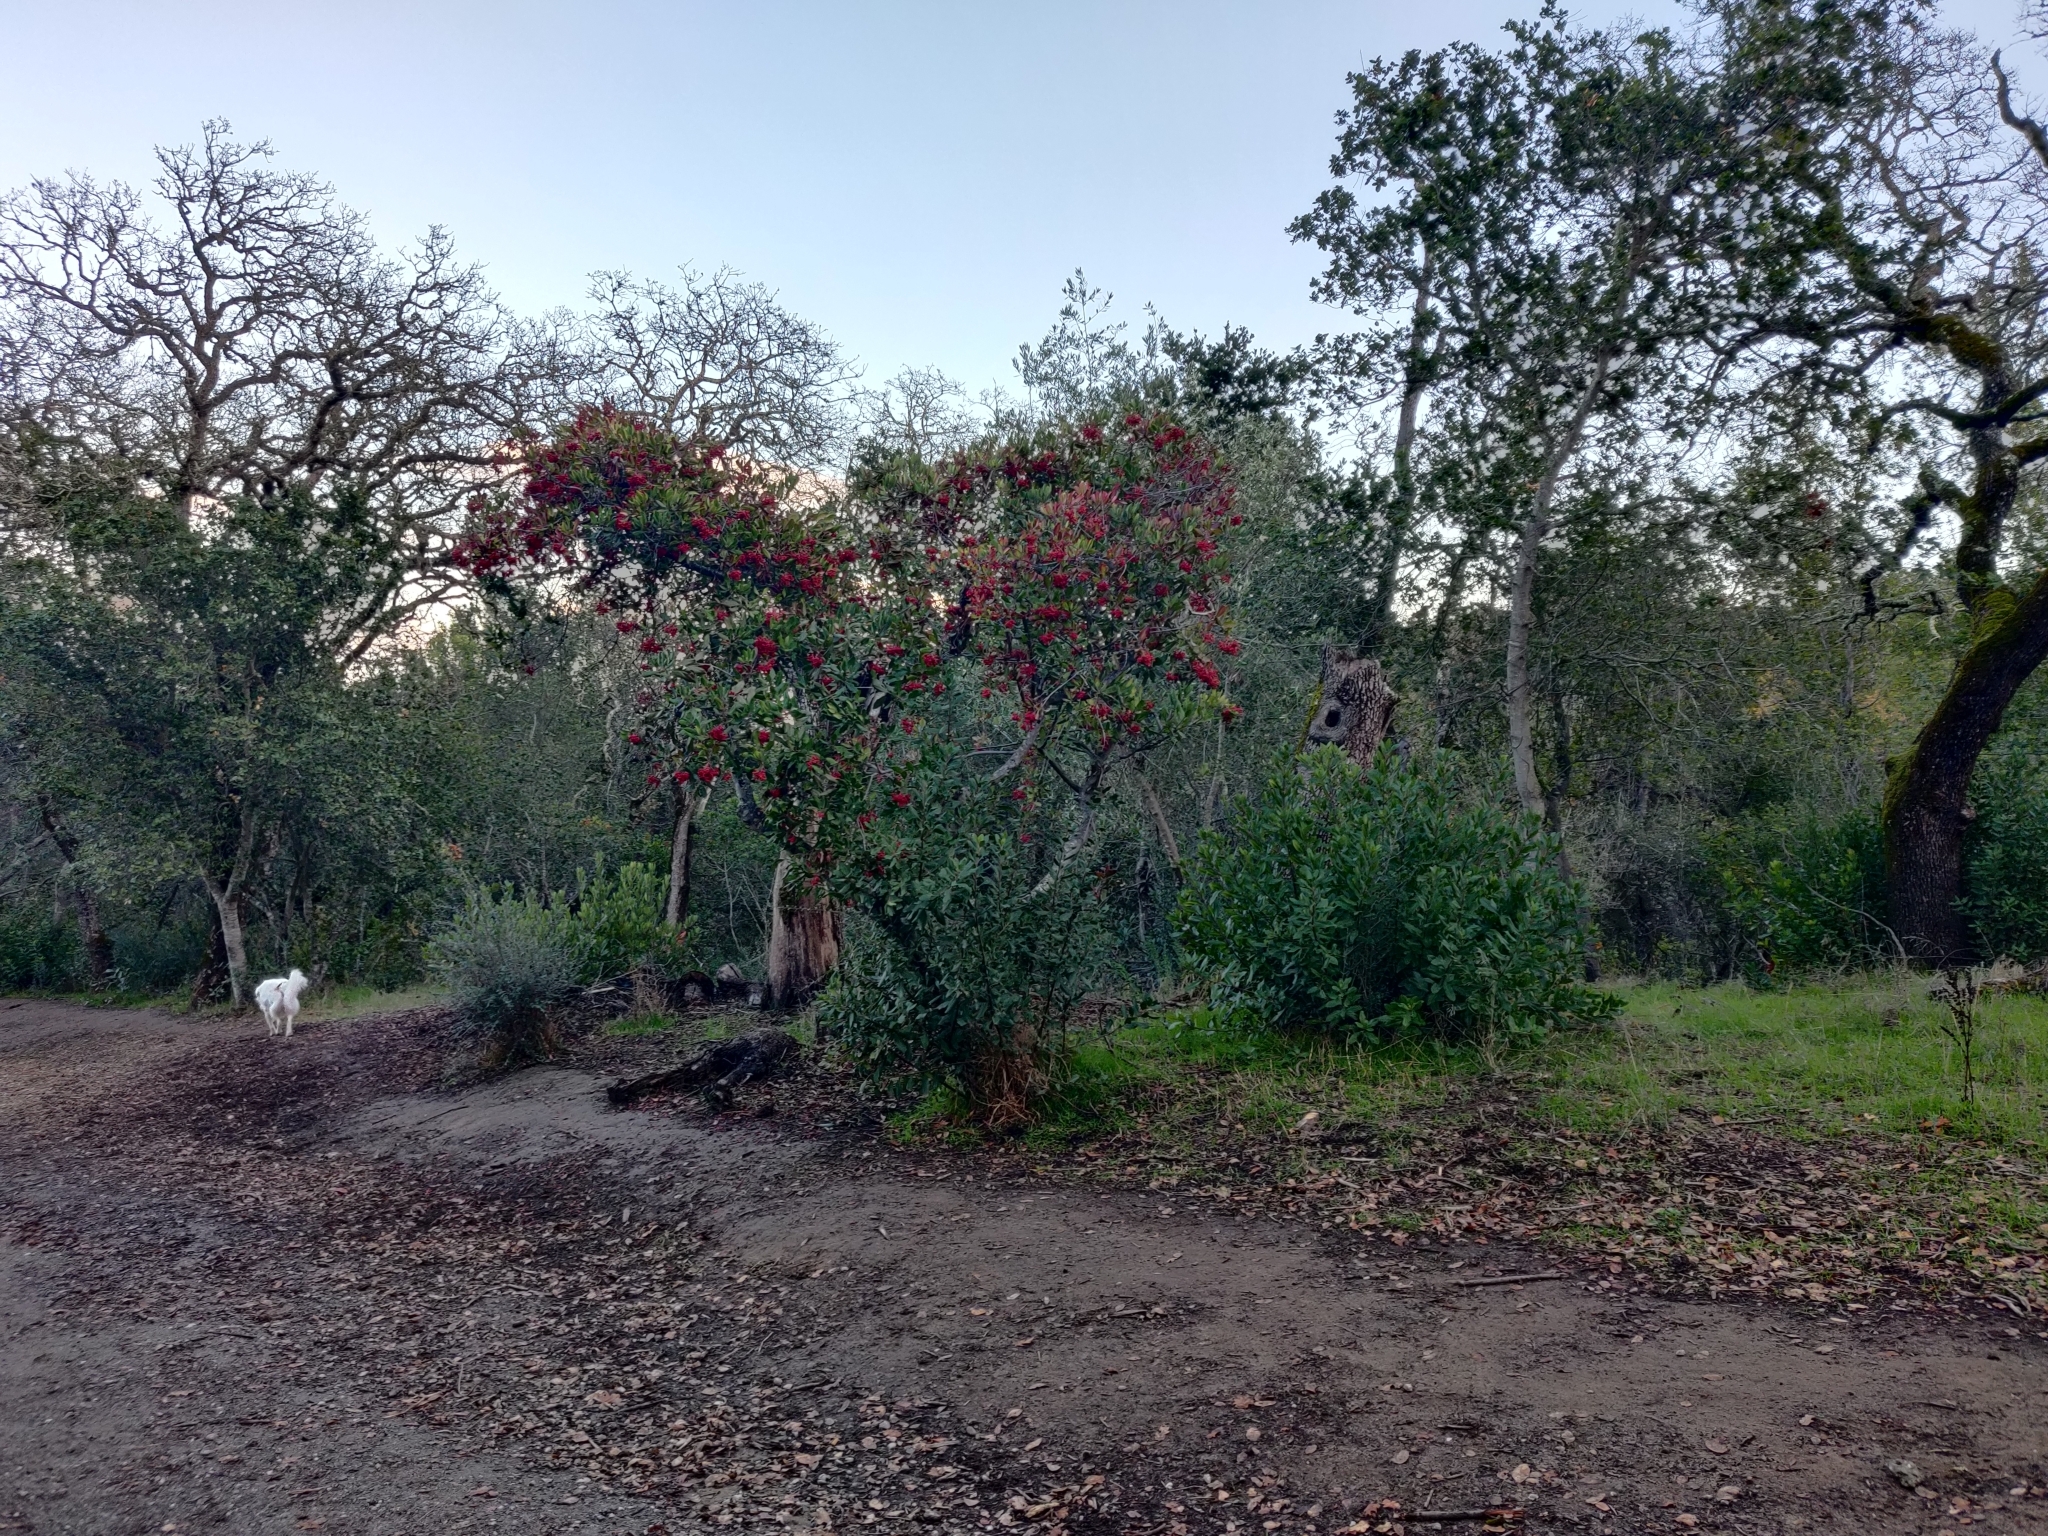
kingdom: Plantae
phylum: Tracheophyta
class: Magnoliopsida
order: Rosales
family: Rosaceae
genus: Heteromeles
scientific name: Heteromeles arbutifolia
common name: California-holly
